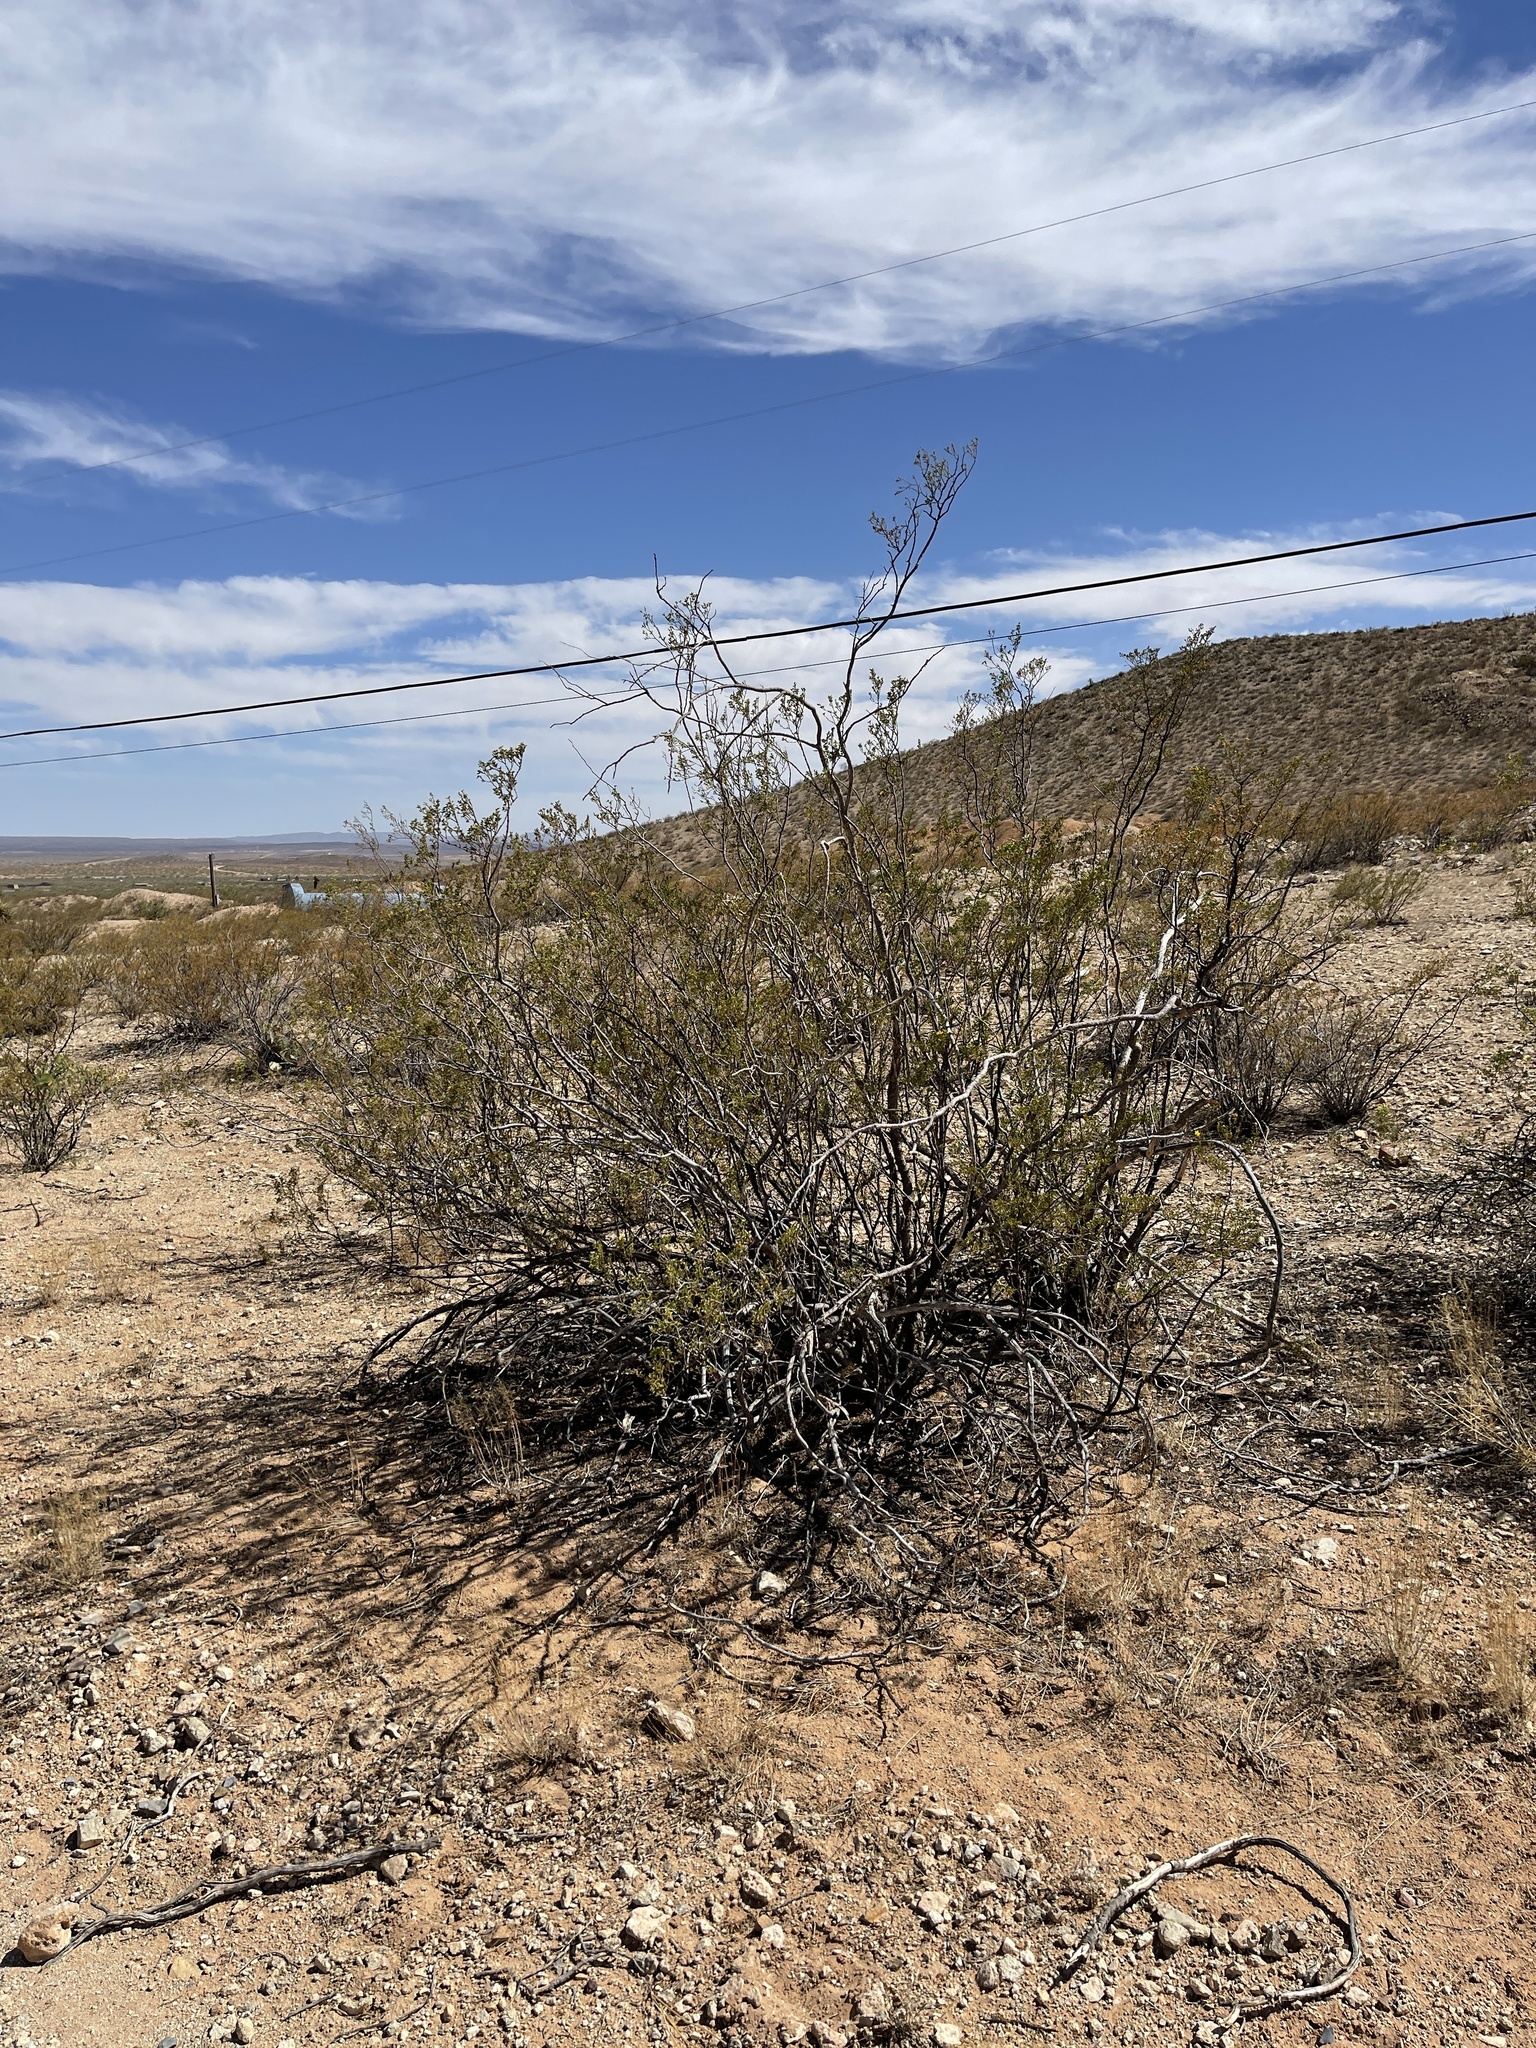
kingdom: Plantae
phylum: Tracheophyta
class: Magnoliopsida
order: Zygophyllales
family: Zygophyllaceae
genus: Larrea
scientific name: Larrea tridentata
